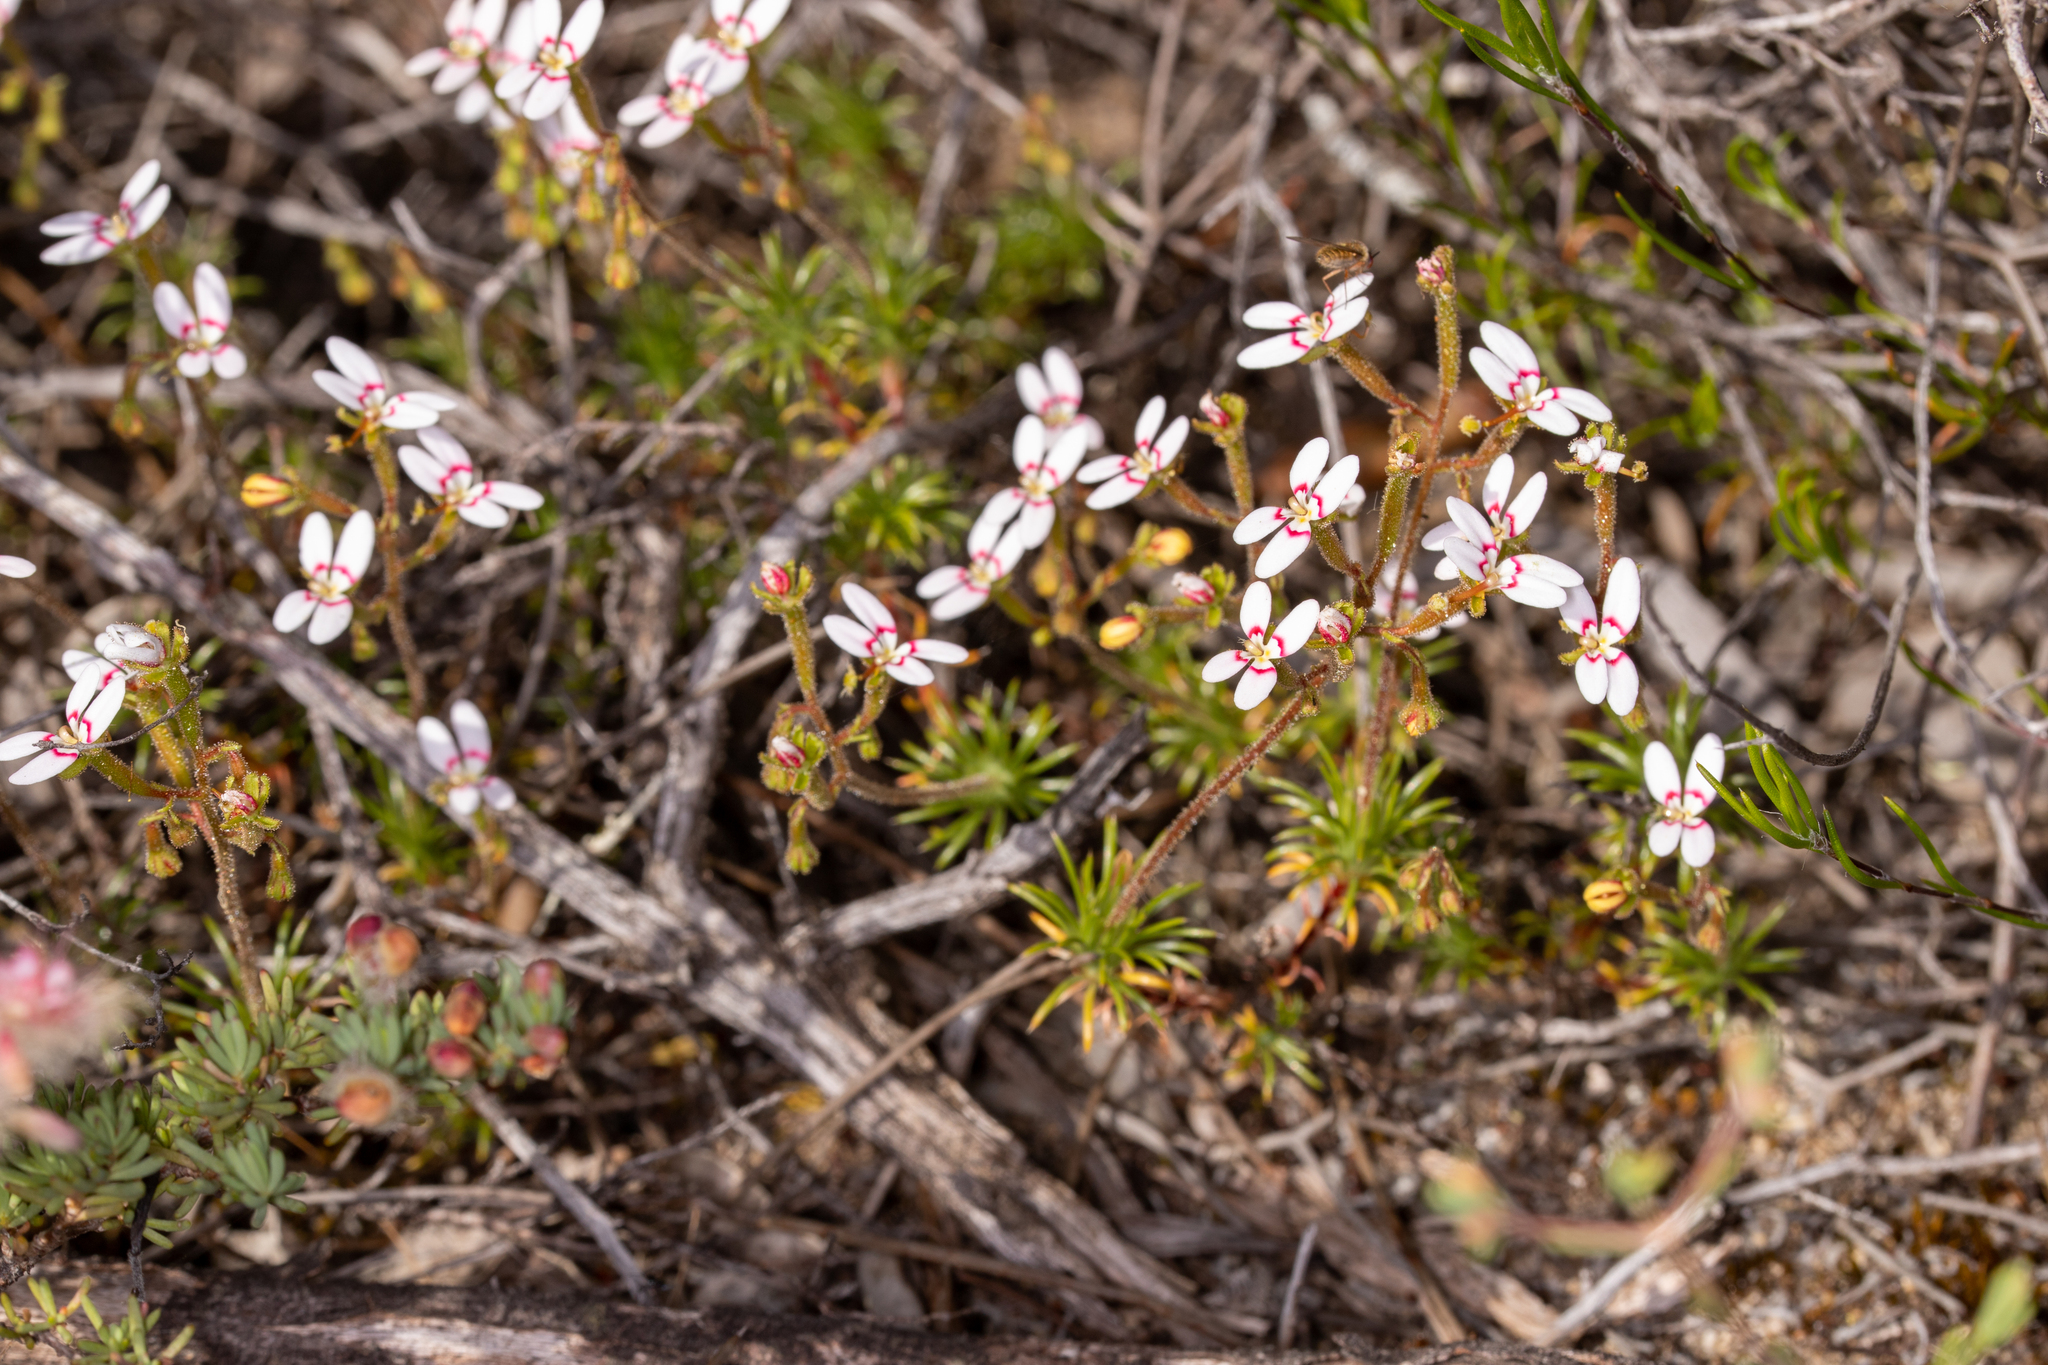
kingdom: Plantae
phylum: Tracheophyta
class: Magnoliopsida
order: Asterales
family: Stylidiaceae
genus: Stylidium
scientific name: Stylidium repens
